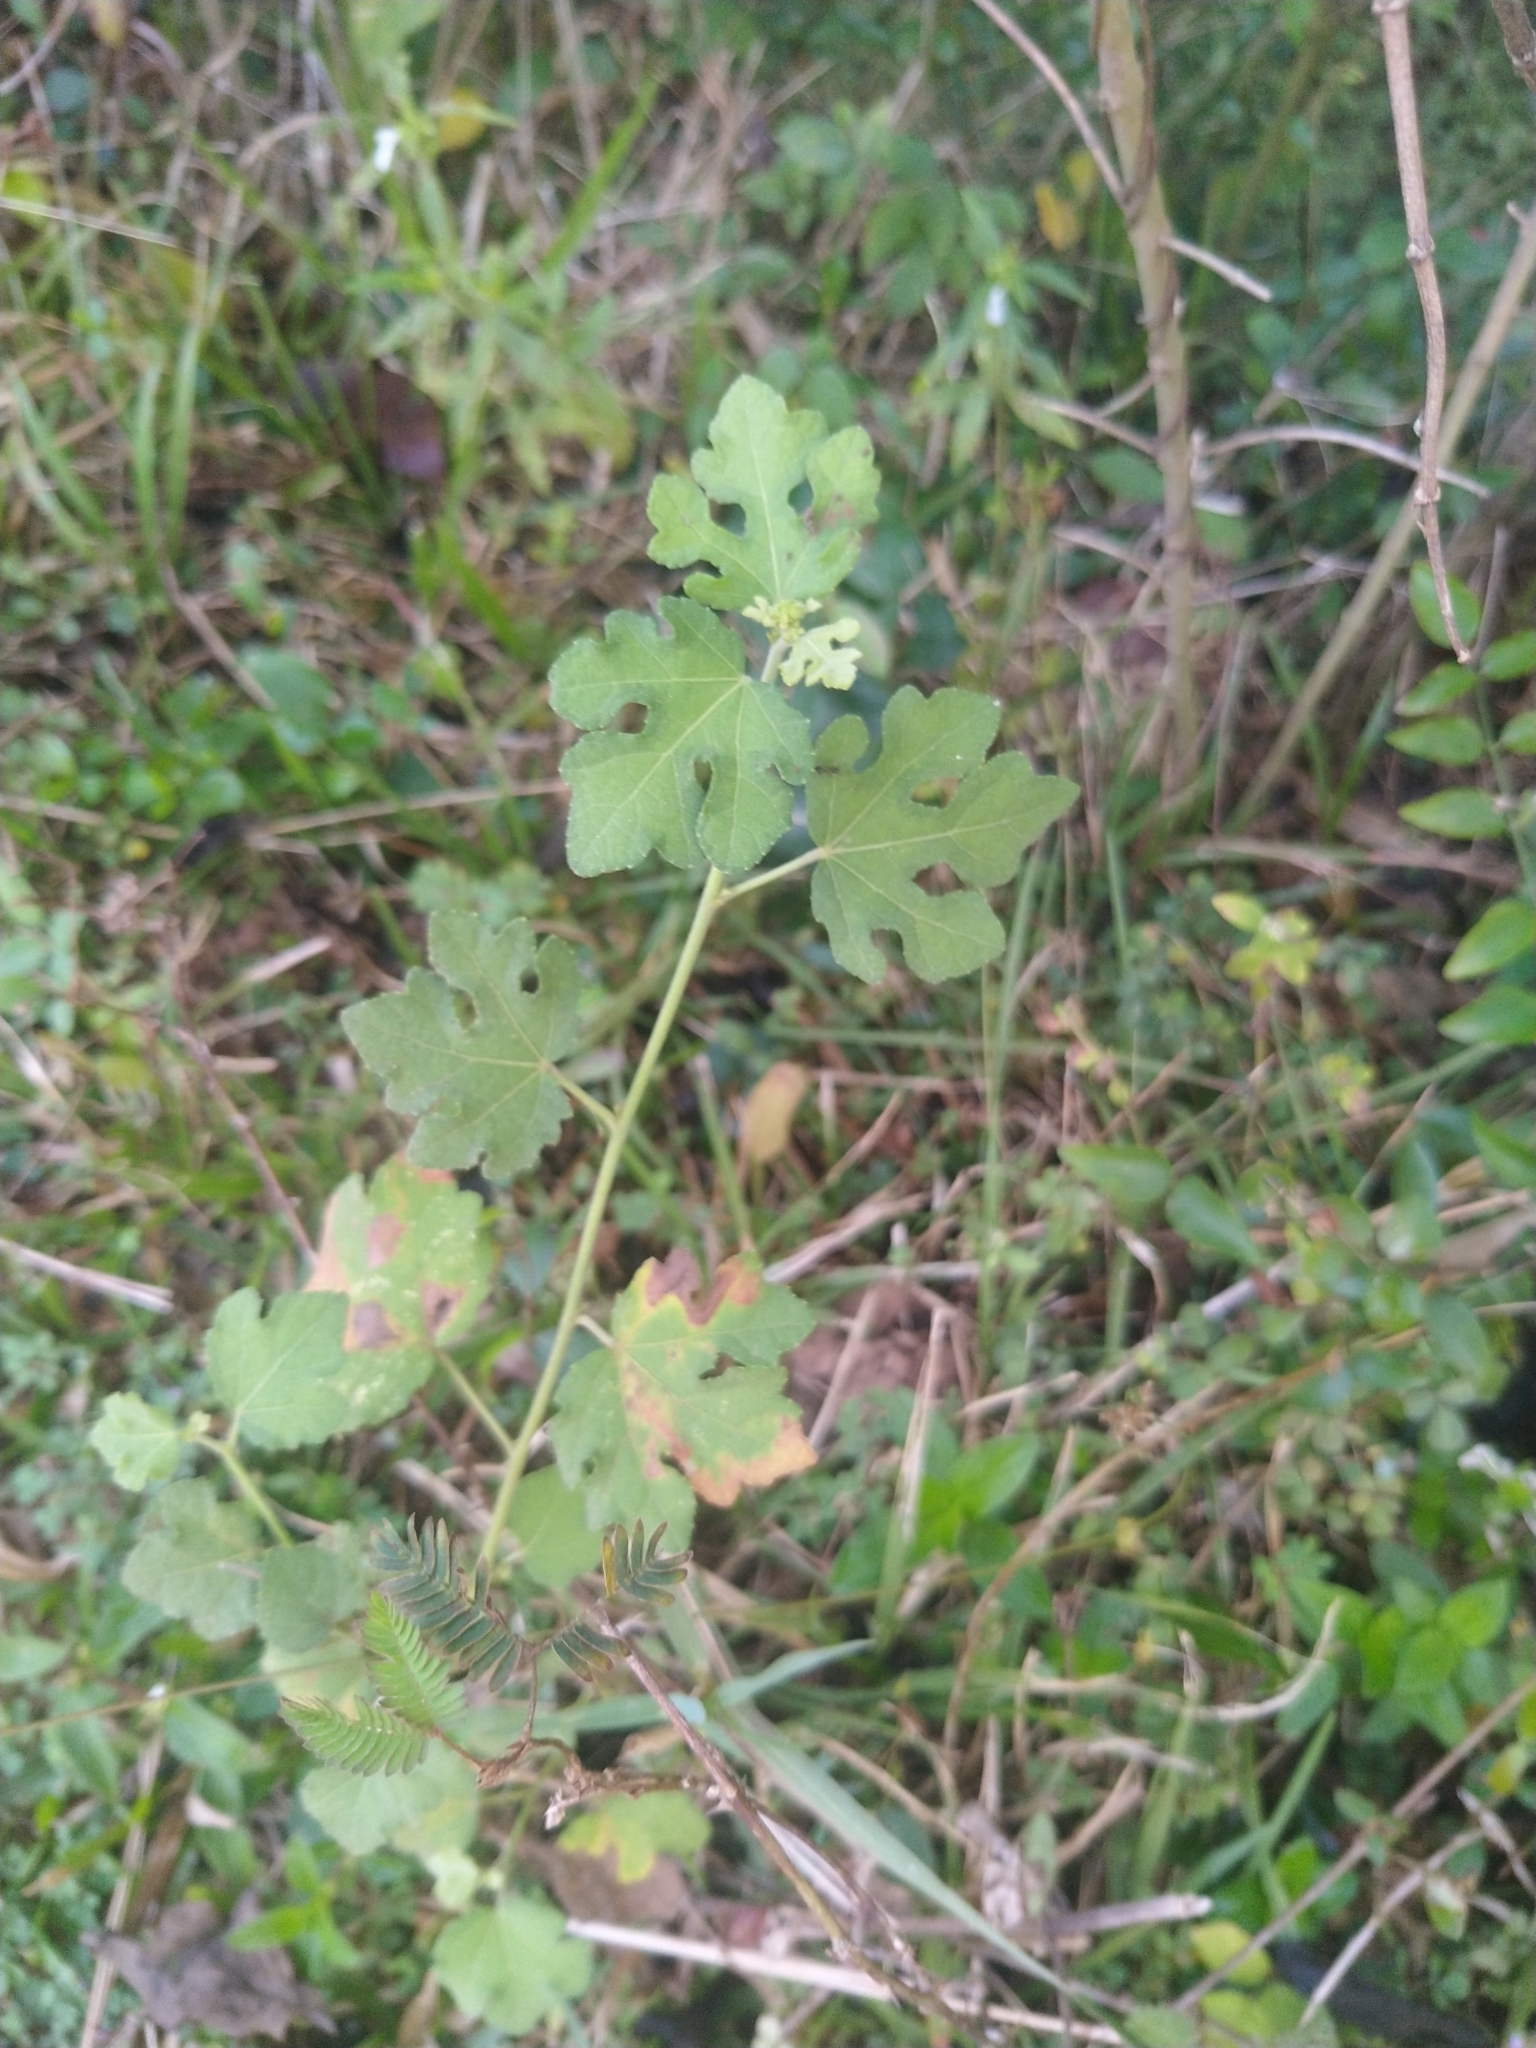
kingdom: Plantae
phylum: Tracheophyta
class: Magnoliopsida
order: Malvales
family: Malvaceae
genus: Urena
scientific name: Urena lobata
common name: Caesarweed
